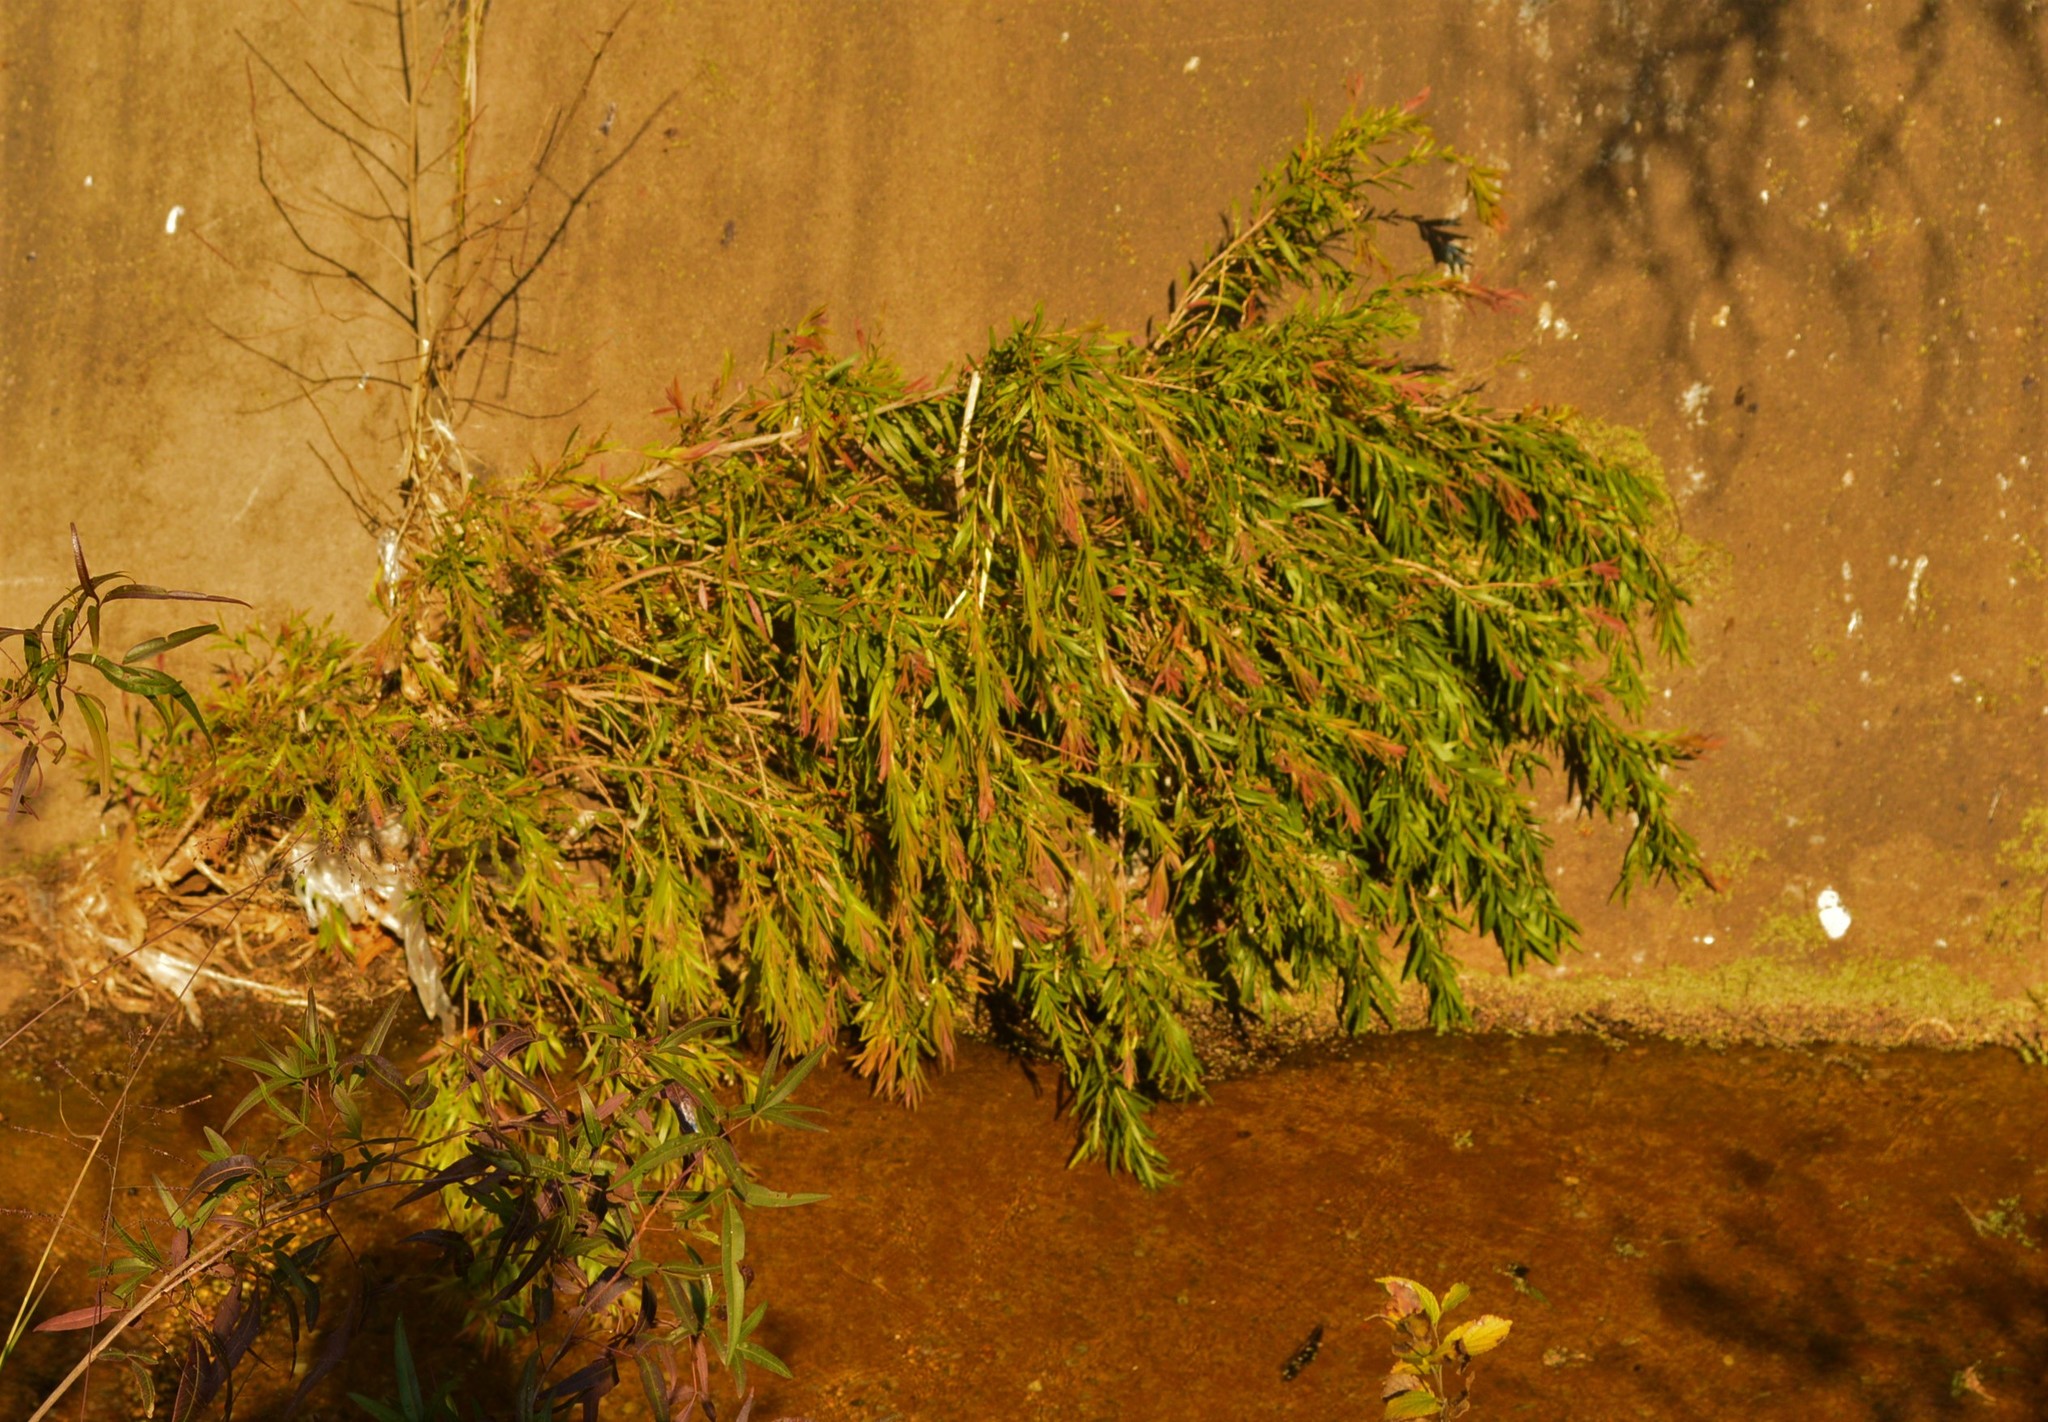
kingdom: Plantae
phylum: Tracheophyta
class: Magnoliopsida
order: Myrtales
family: Myrtaceae
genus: Callistemon
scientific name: Callistemon viminalis
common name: Drooping bottlebrush
